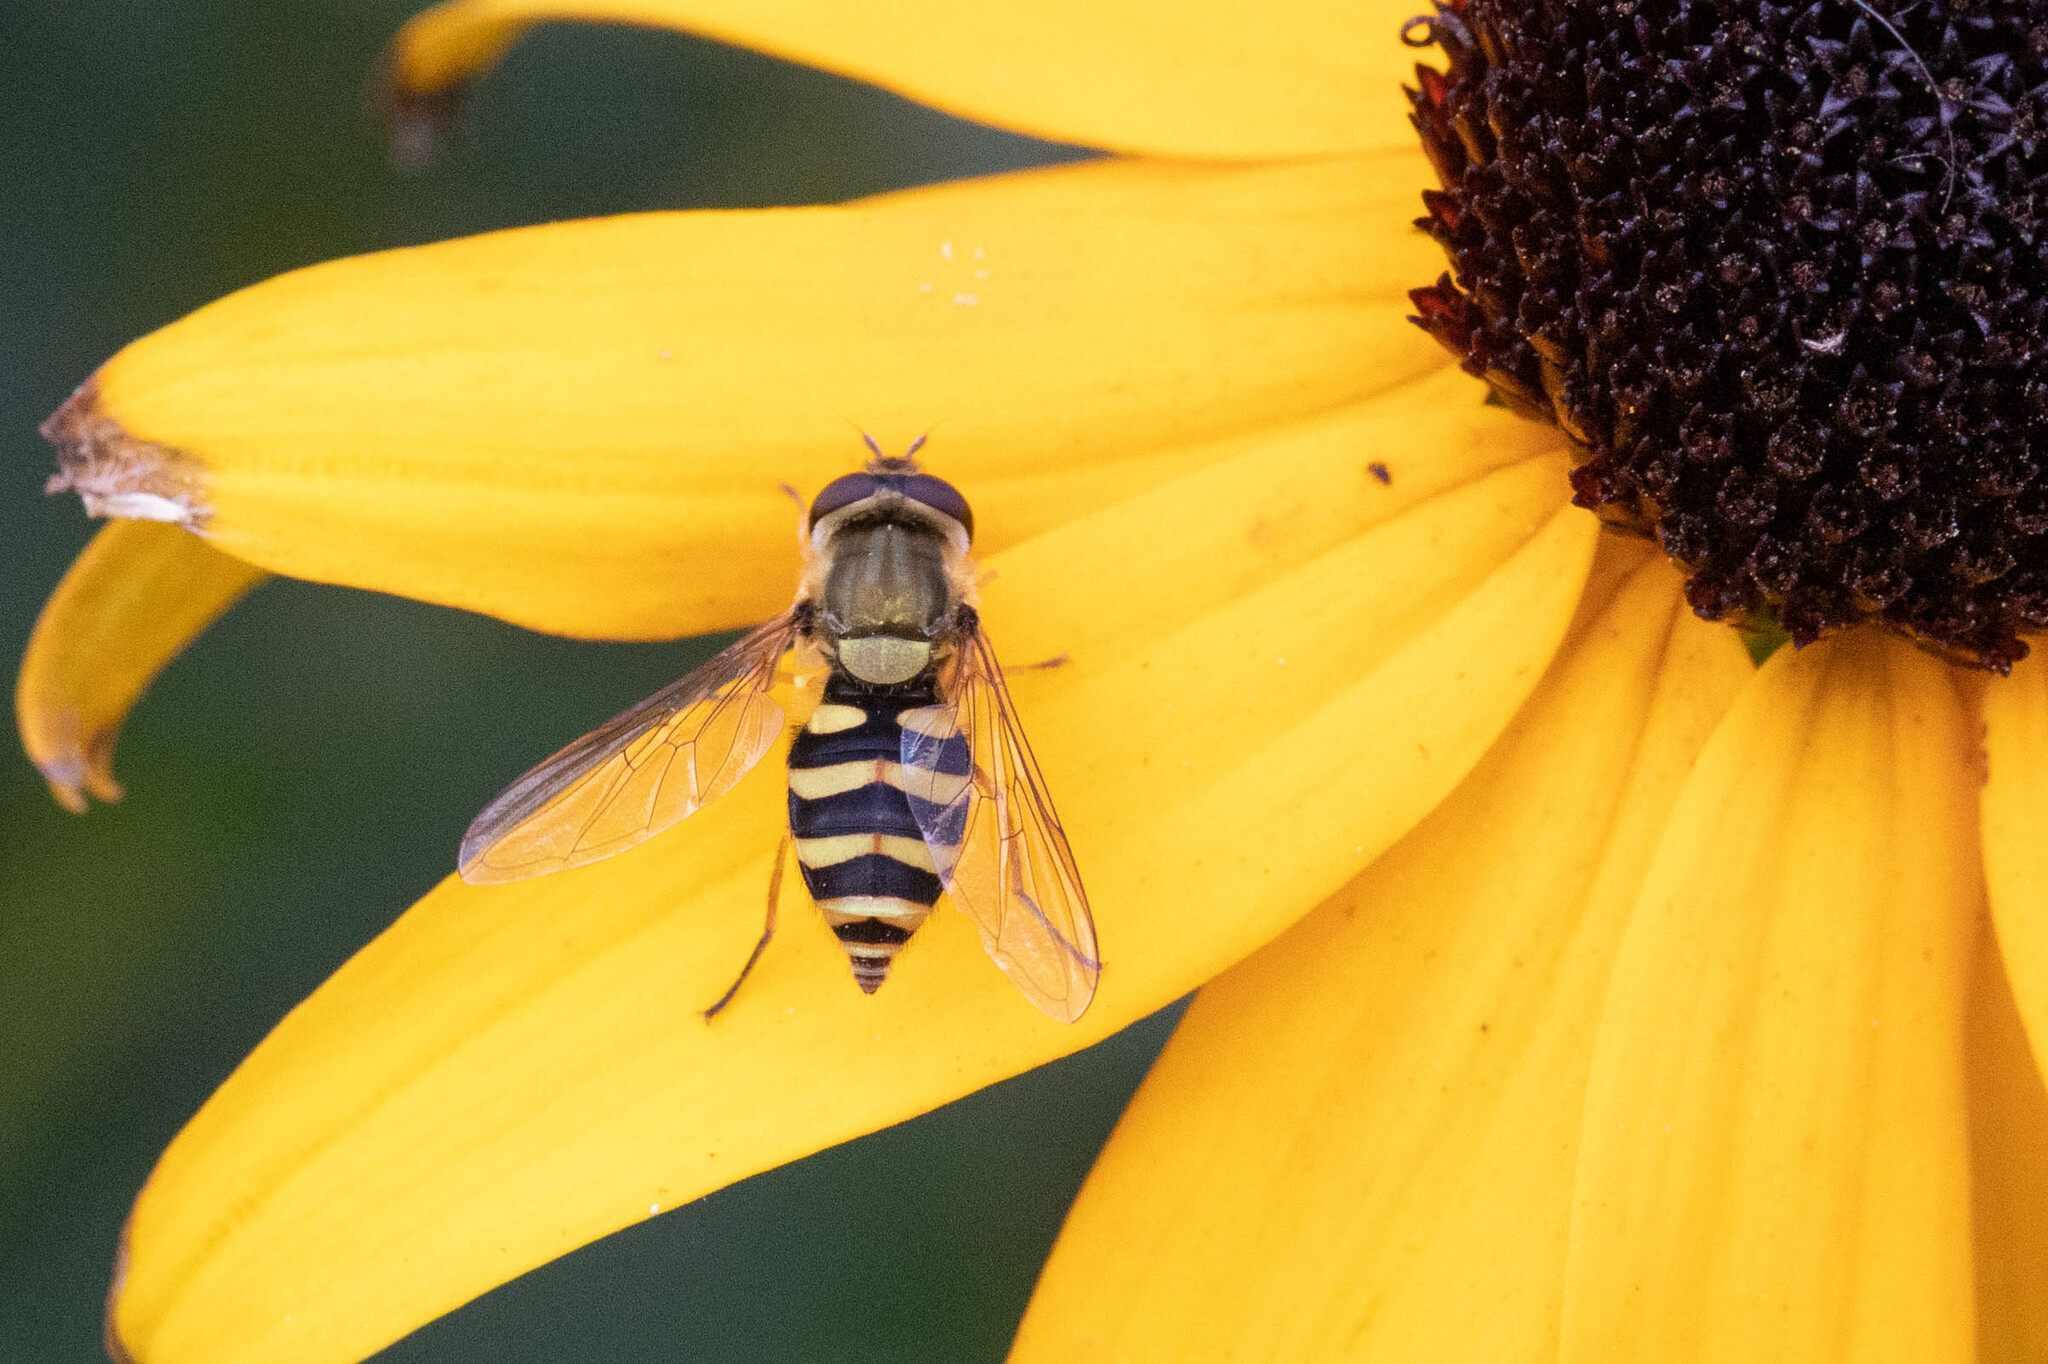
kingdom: Animalia
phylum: Arthropoda
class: Insecta
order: Diptera
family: Syrphidae
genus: Syrphus
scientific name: Syrphus
